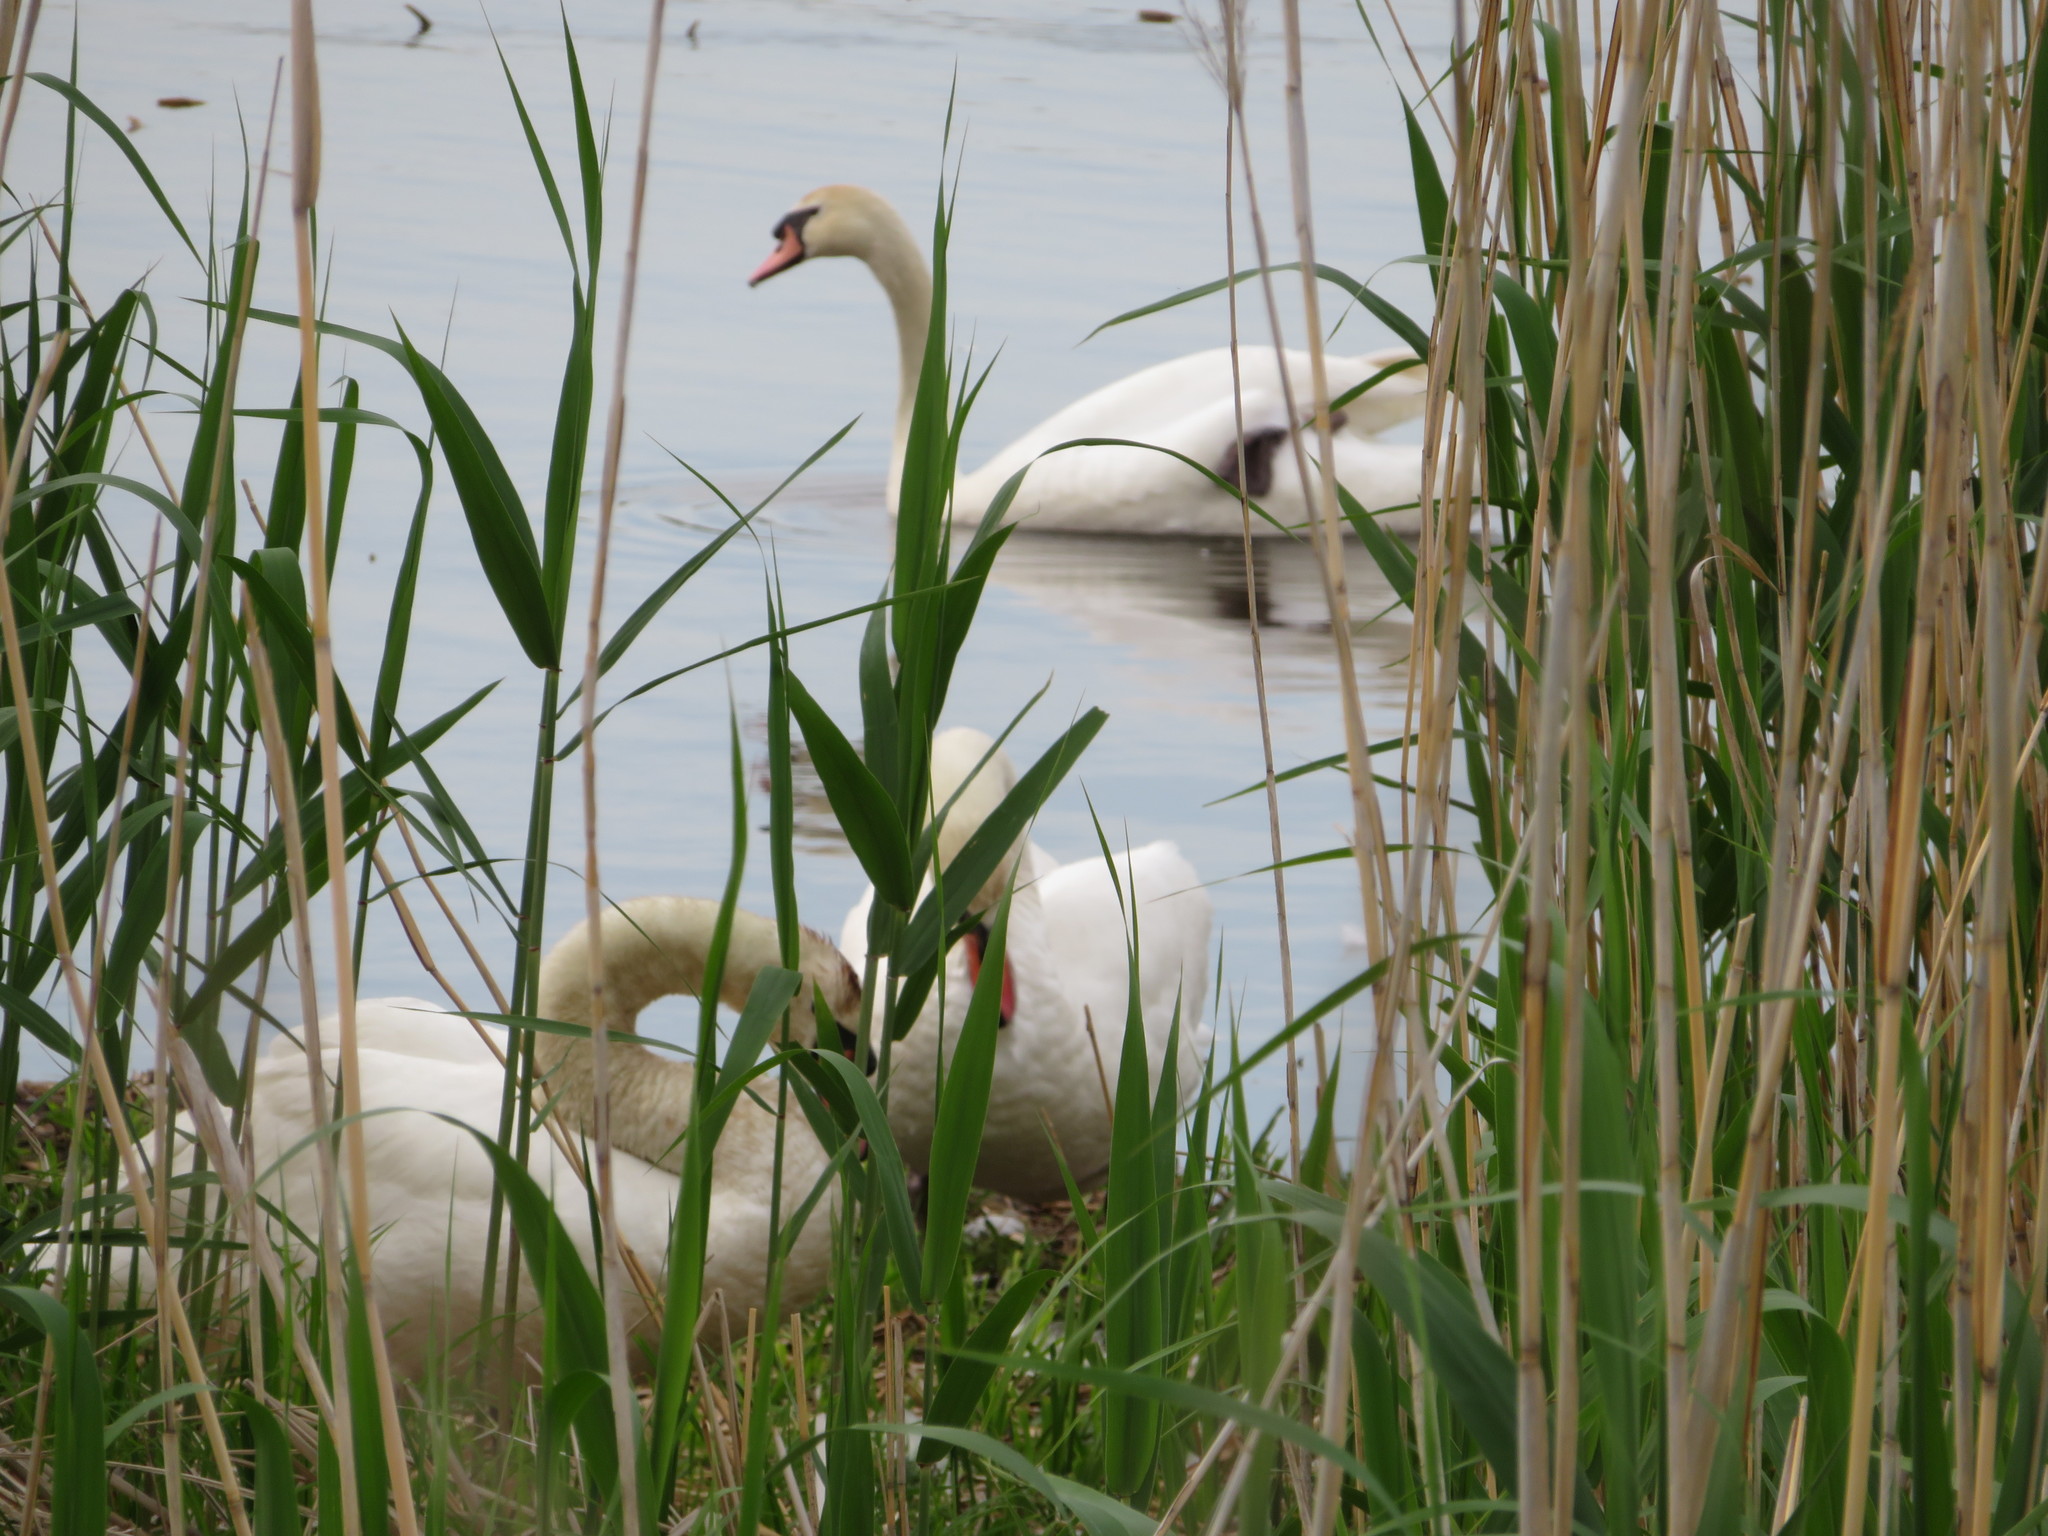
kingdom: Animalia
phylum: Chordata
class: Aves
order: Anseriformes
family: Anatidae
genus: Cygnus
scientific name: Cygnus olor
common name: Mute swan
